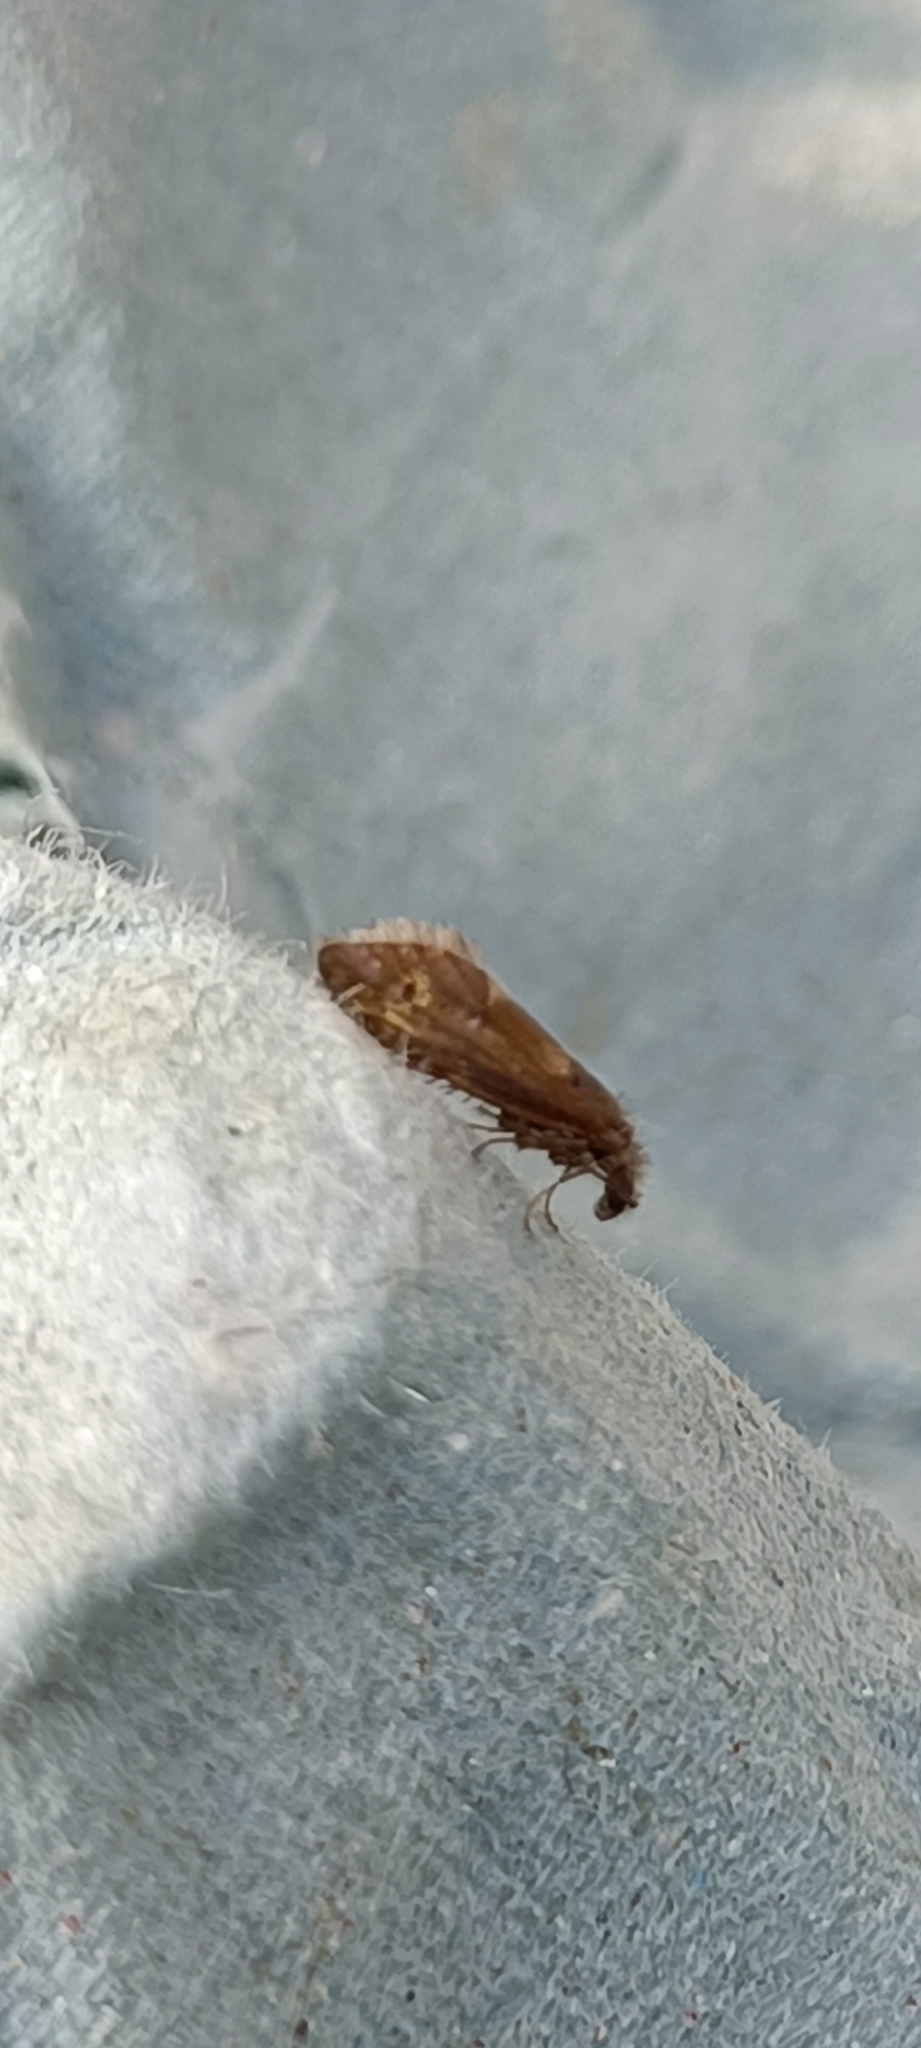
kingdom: Animalia
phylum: Arthropoda
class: Insecta
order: Lepidoptera
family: Eriocraniidae
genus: Dyseriocrania
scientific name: Dyseriocrania subpurpurella
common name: Common oak purple
